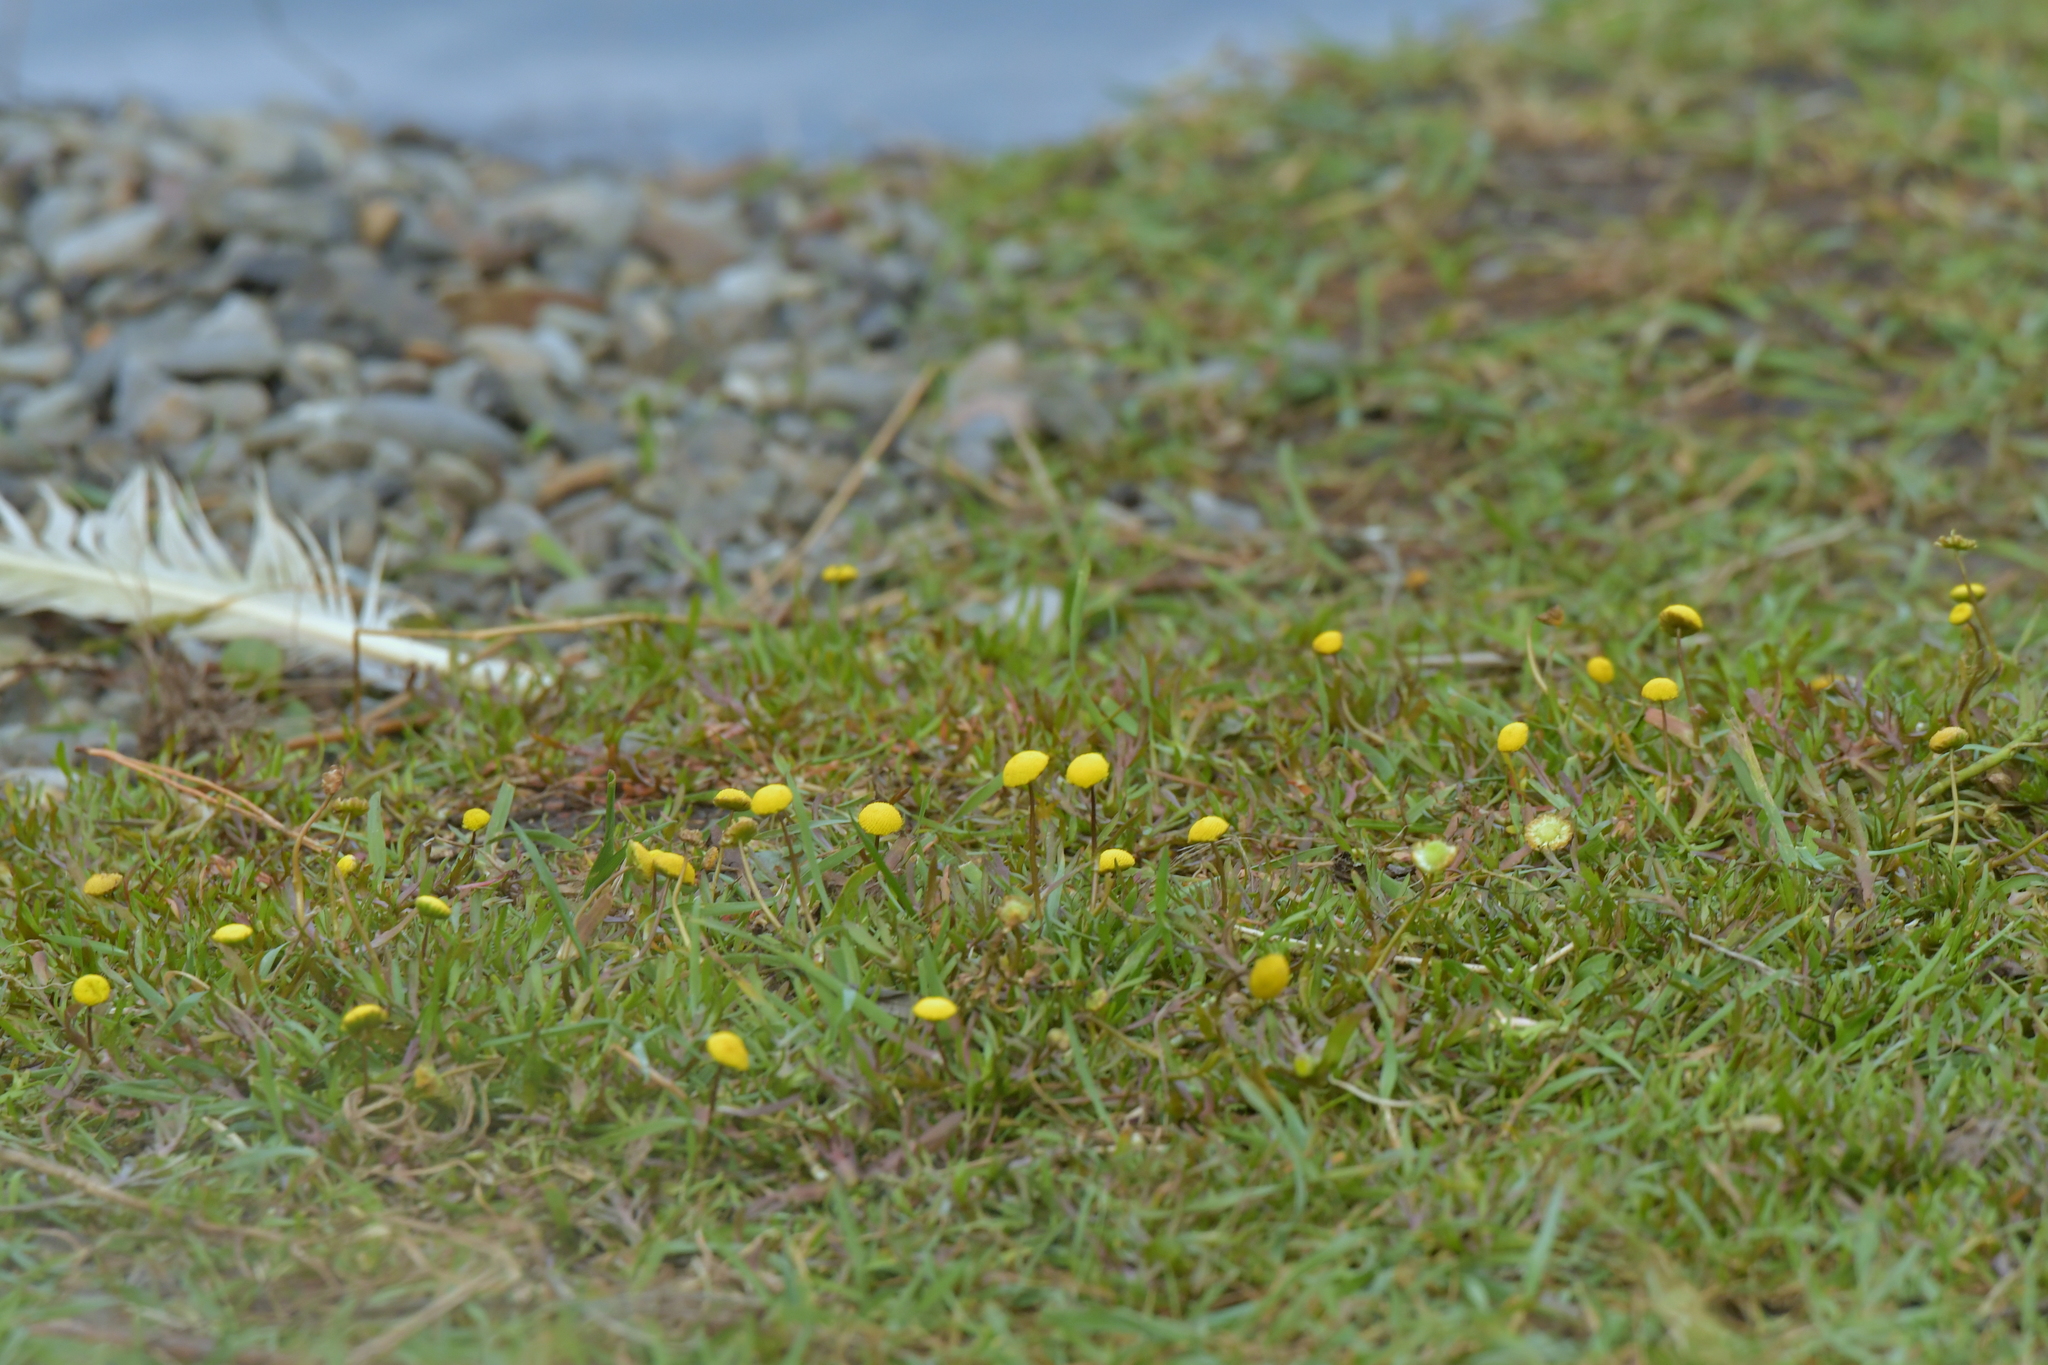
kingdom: Plantae
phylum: Tracheophyta
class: Magnoliopsida
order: Asterales
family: Asteraceae
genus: Cotula
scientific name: Cotula coronopifolia
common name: Buttonweed
